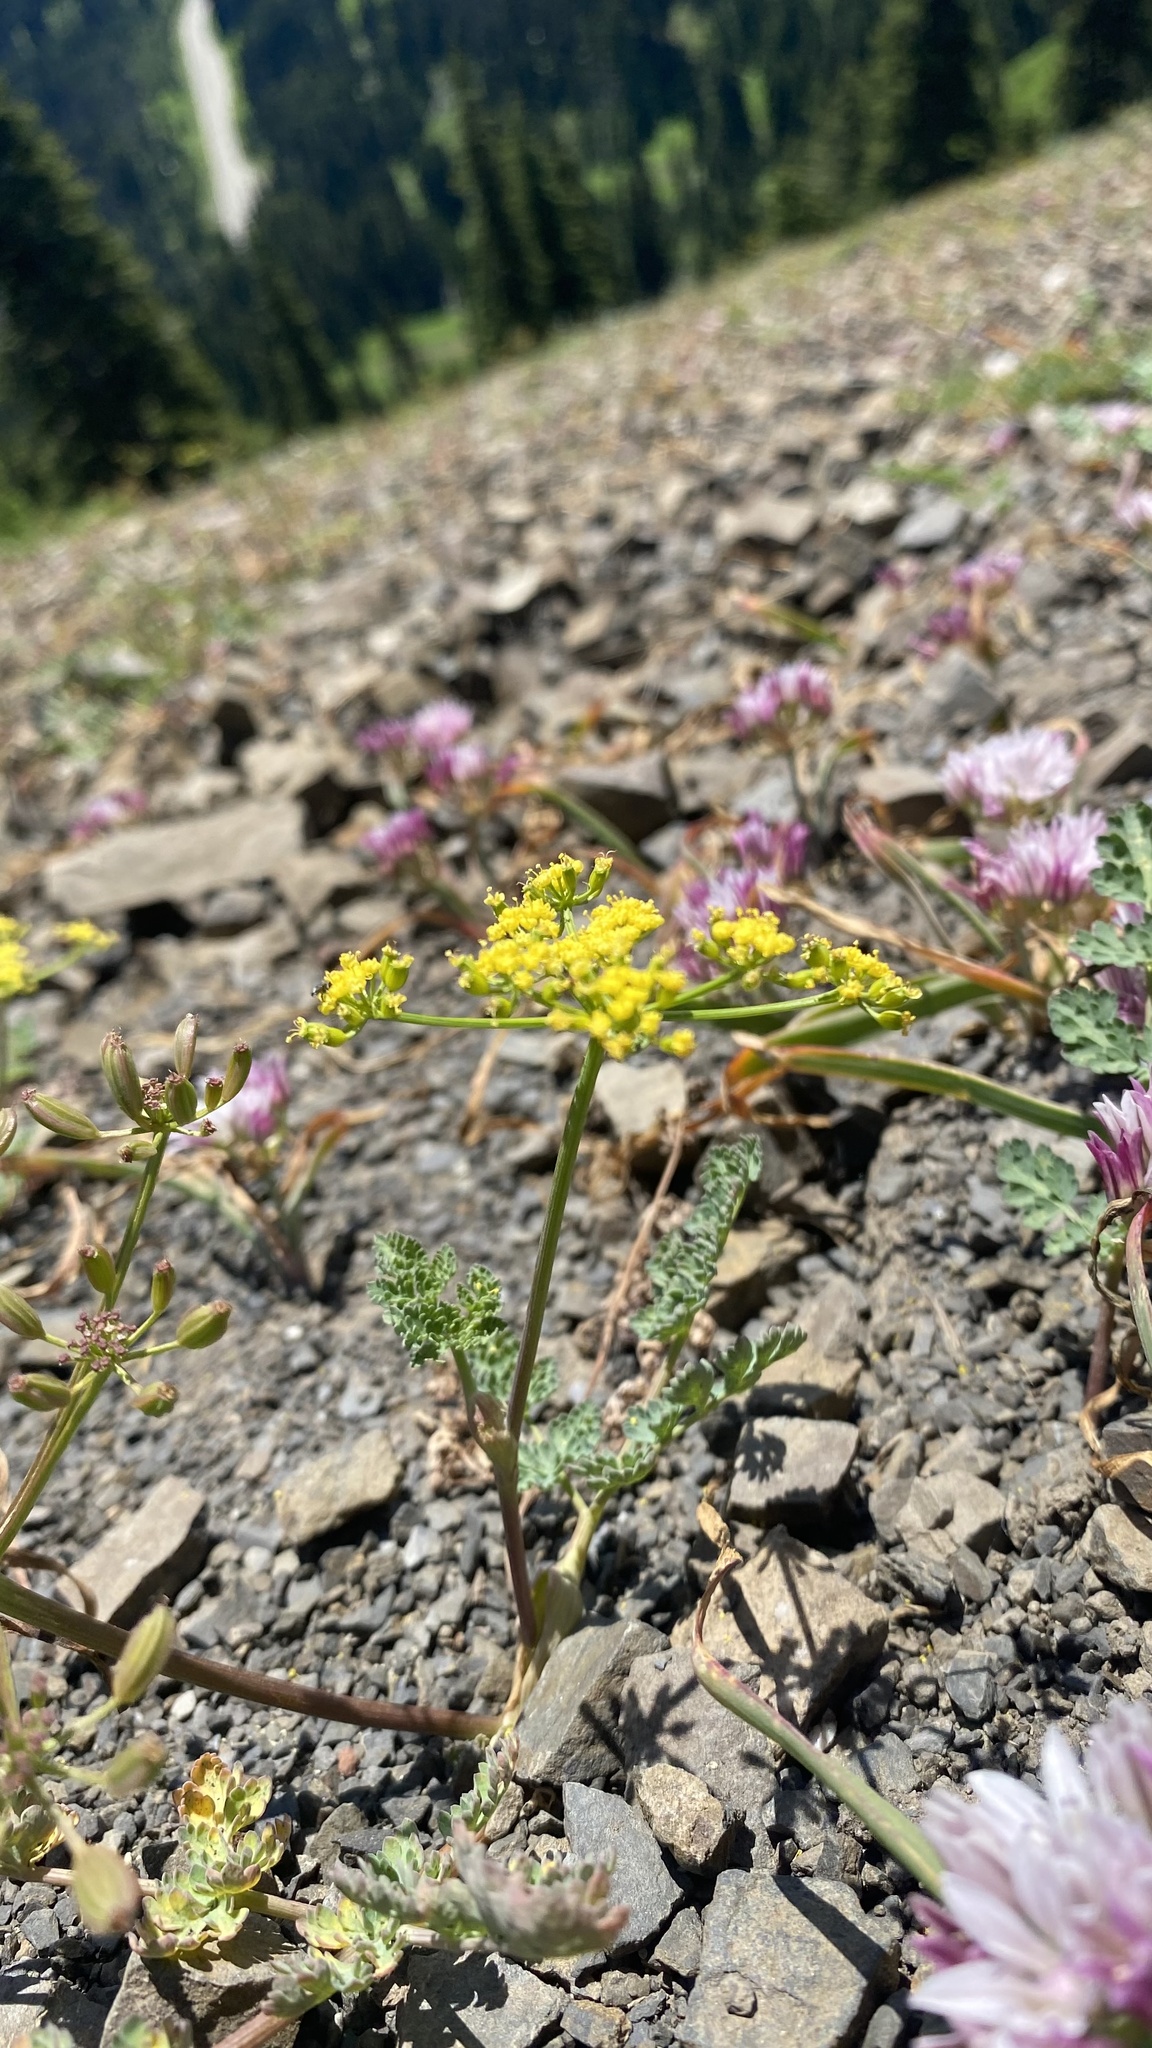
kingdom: Plantae
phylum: Tracheophyta
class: Magnoliopsida
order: Apiales
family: Apiaceae
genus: Lomatium
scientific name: Lomatium martindalei
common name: Cascade desert-parsley
